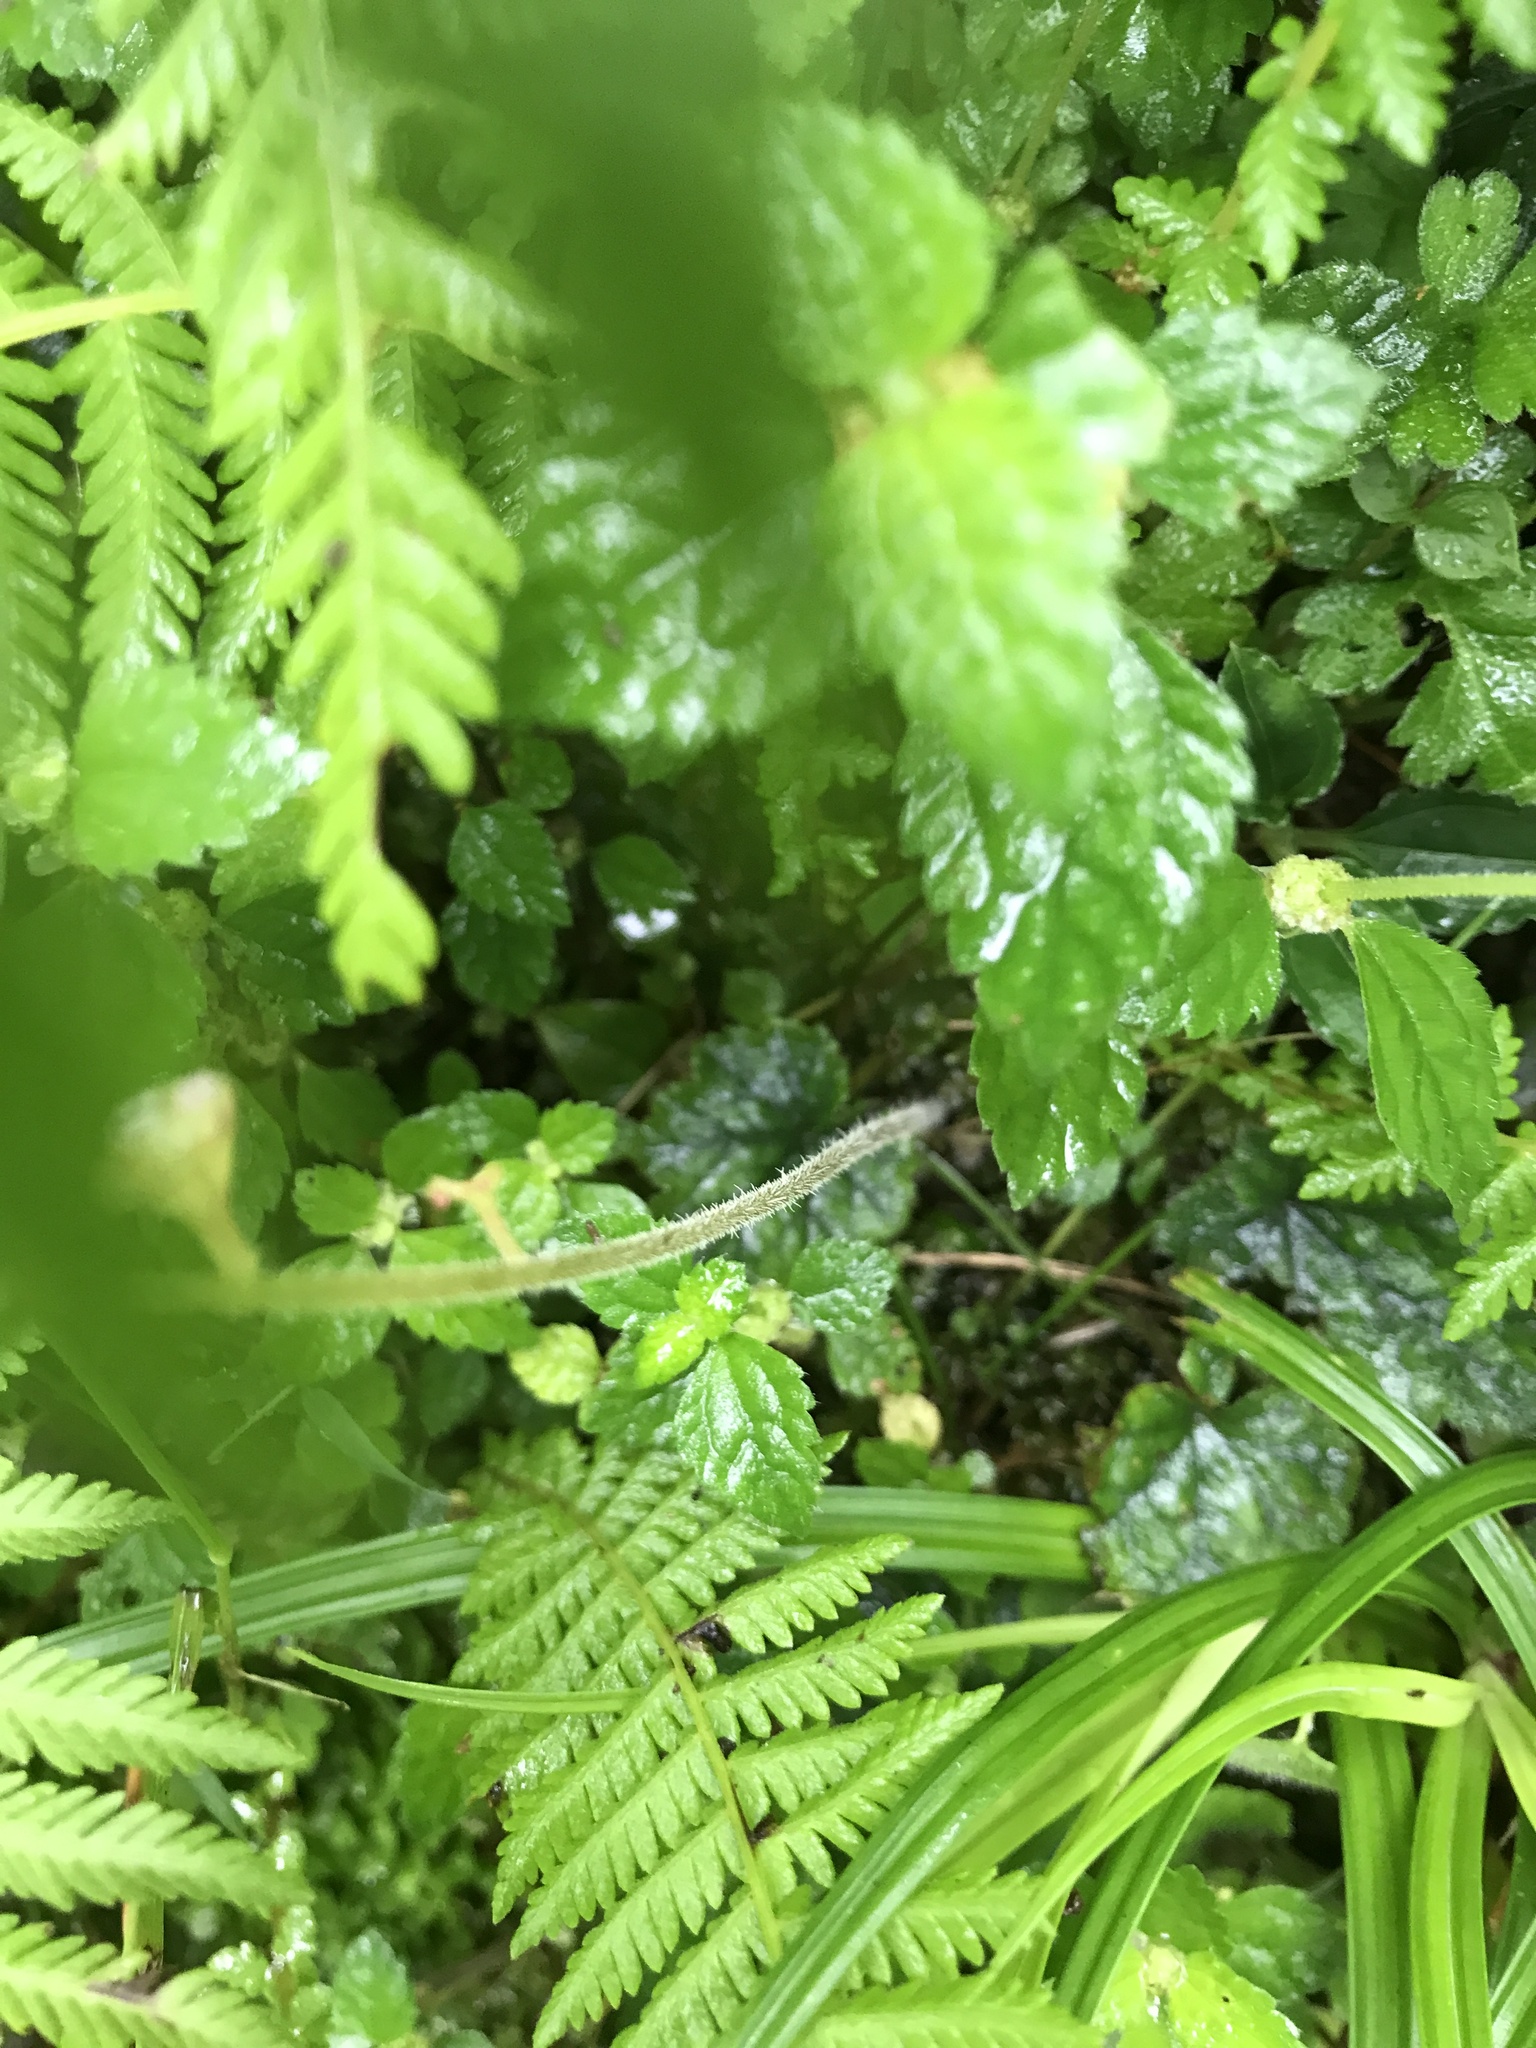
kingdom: Plantae
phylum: Tracheophyta
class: Magnoliopsida
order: Saxifragales
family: Saxifragaceae
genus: Asimitellaria
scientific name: Asimitellaria formosana
